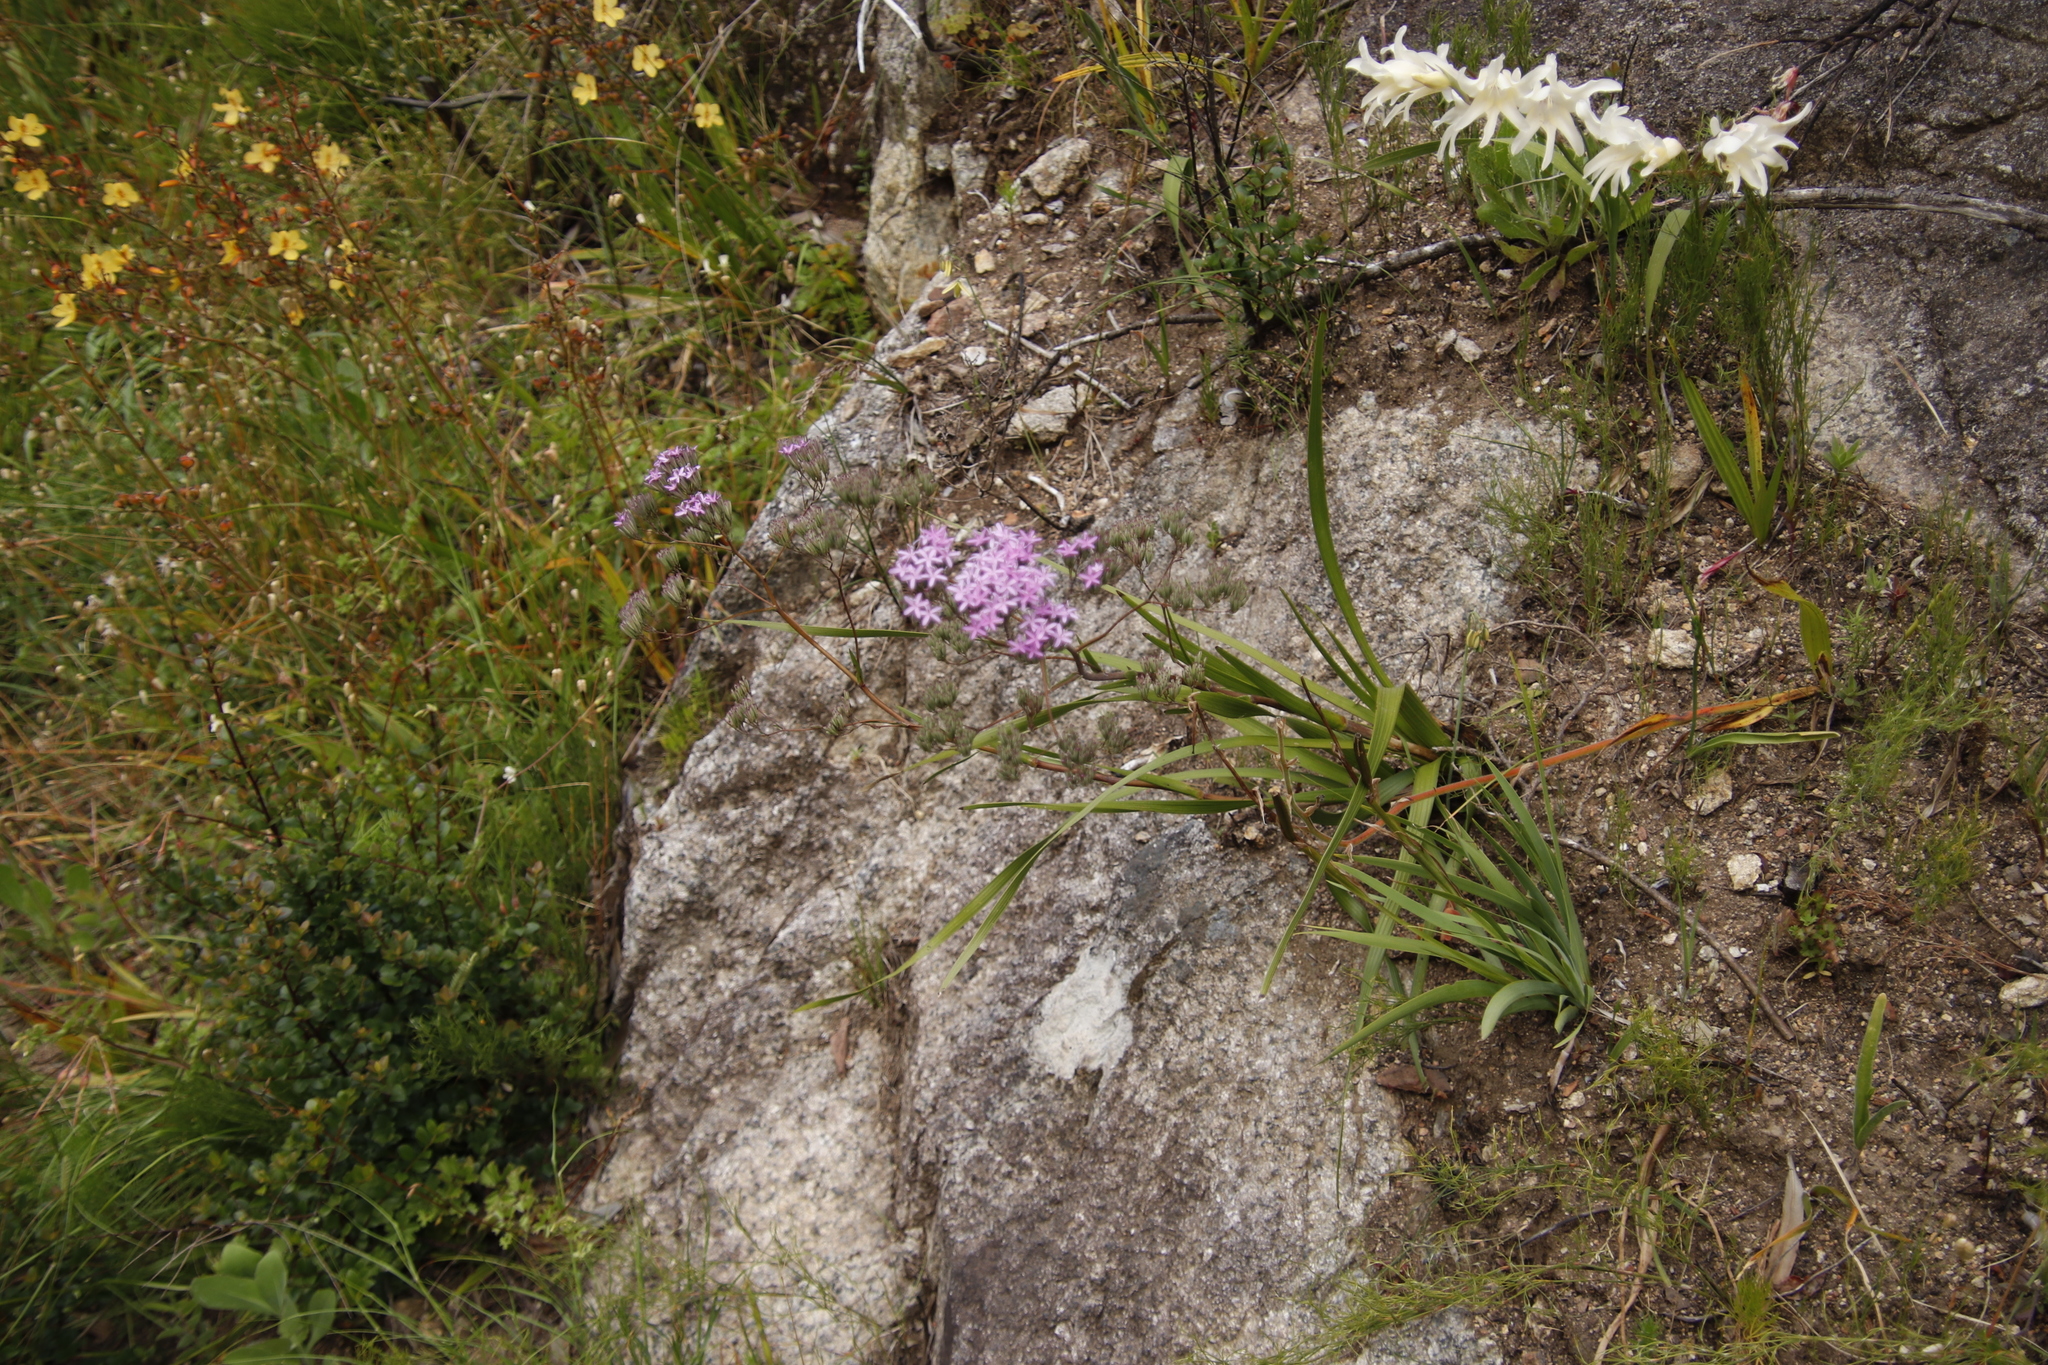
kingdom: Plantae
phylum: Tracheophyta
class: Magnoliopsida
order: Asterales
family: Asteraceae
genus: Corymbium
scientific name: Corymbium glabrum
